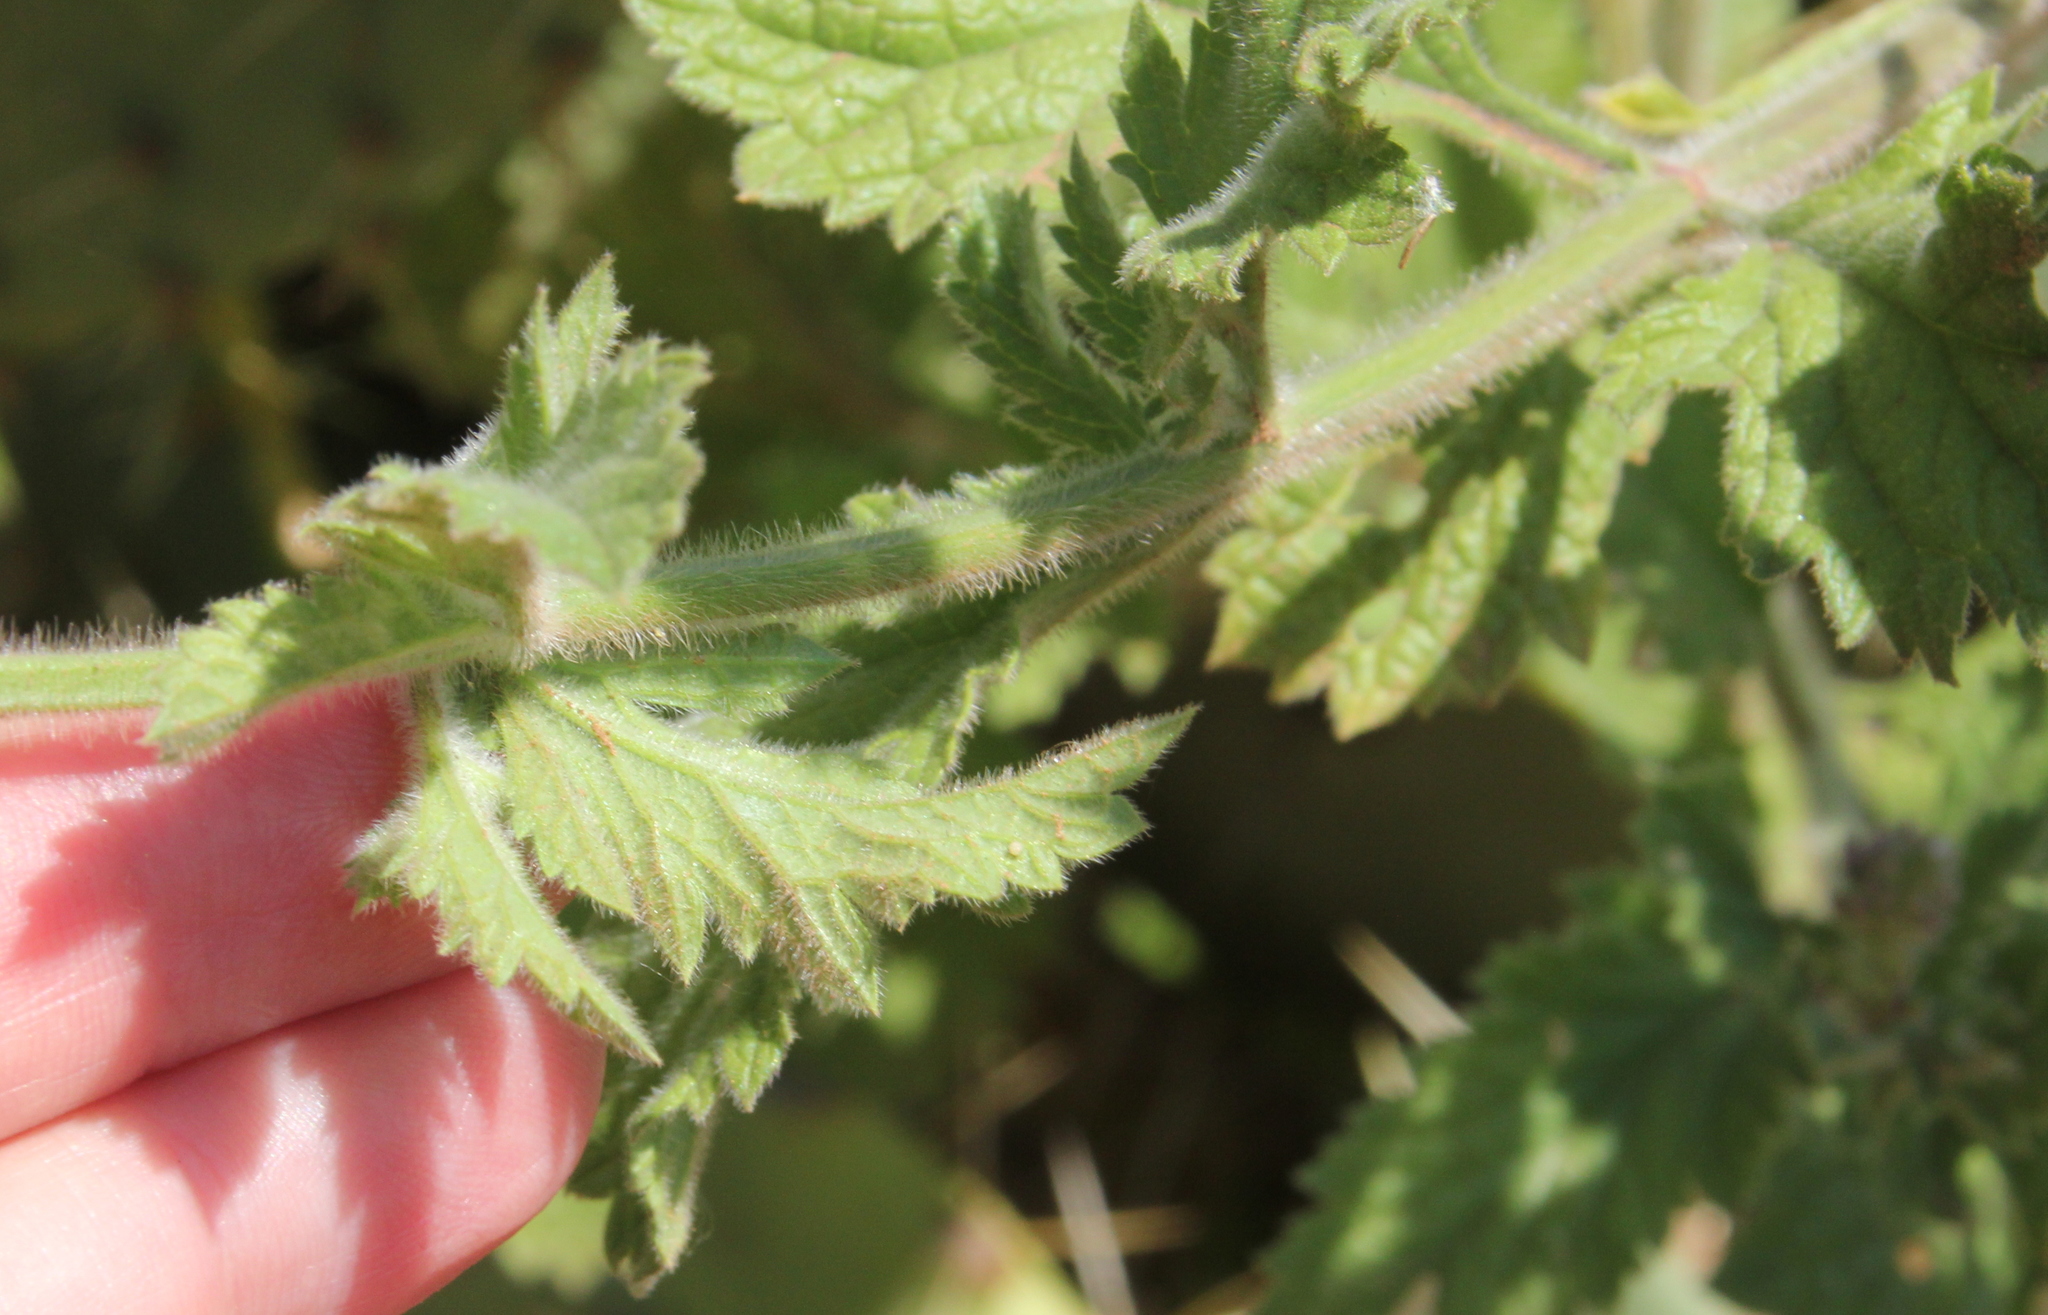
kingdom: Plantae
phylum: Tracheophyta
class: Magnoliopsida
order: Lamiales
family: Verbenaceae
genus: Verbena
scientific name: Verbena lasiostachys
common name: Vervain
